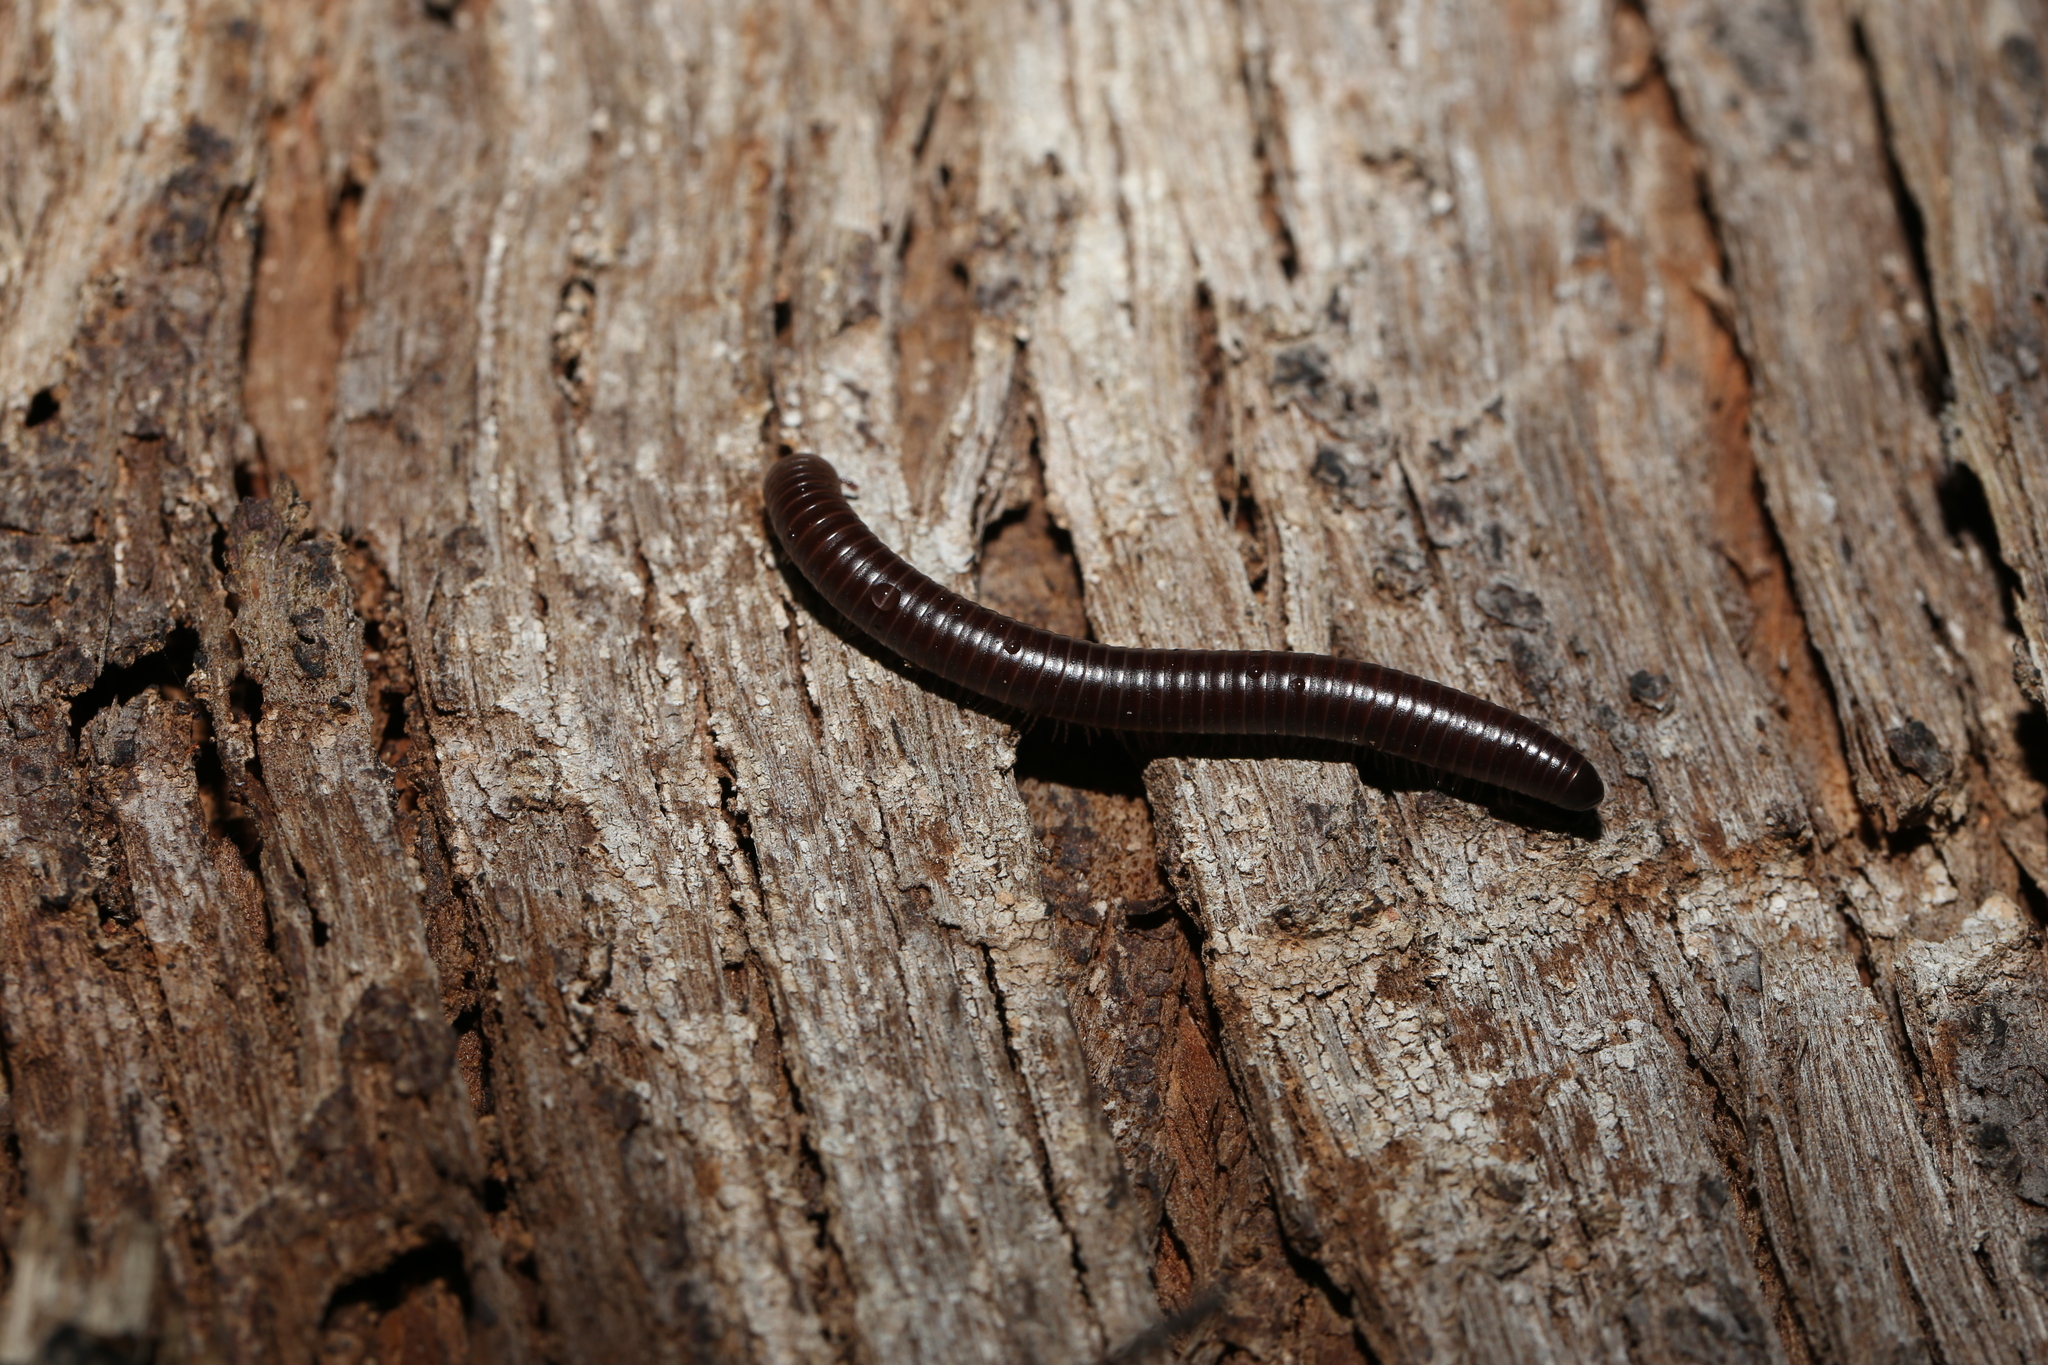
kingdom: Animalia
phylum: Arthropoda
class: Diplopoda
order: Julida
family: Julidae
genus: Ommatoiulus
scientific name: Ommatoiulus moreleti
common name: Portuguese millipede
